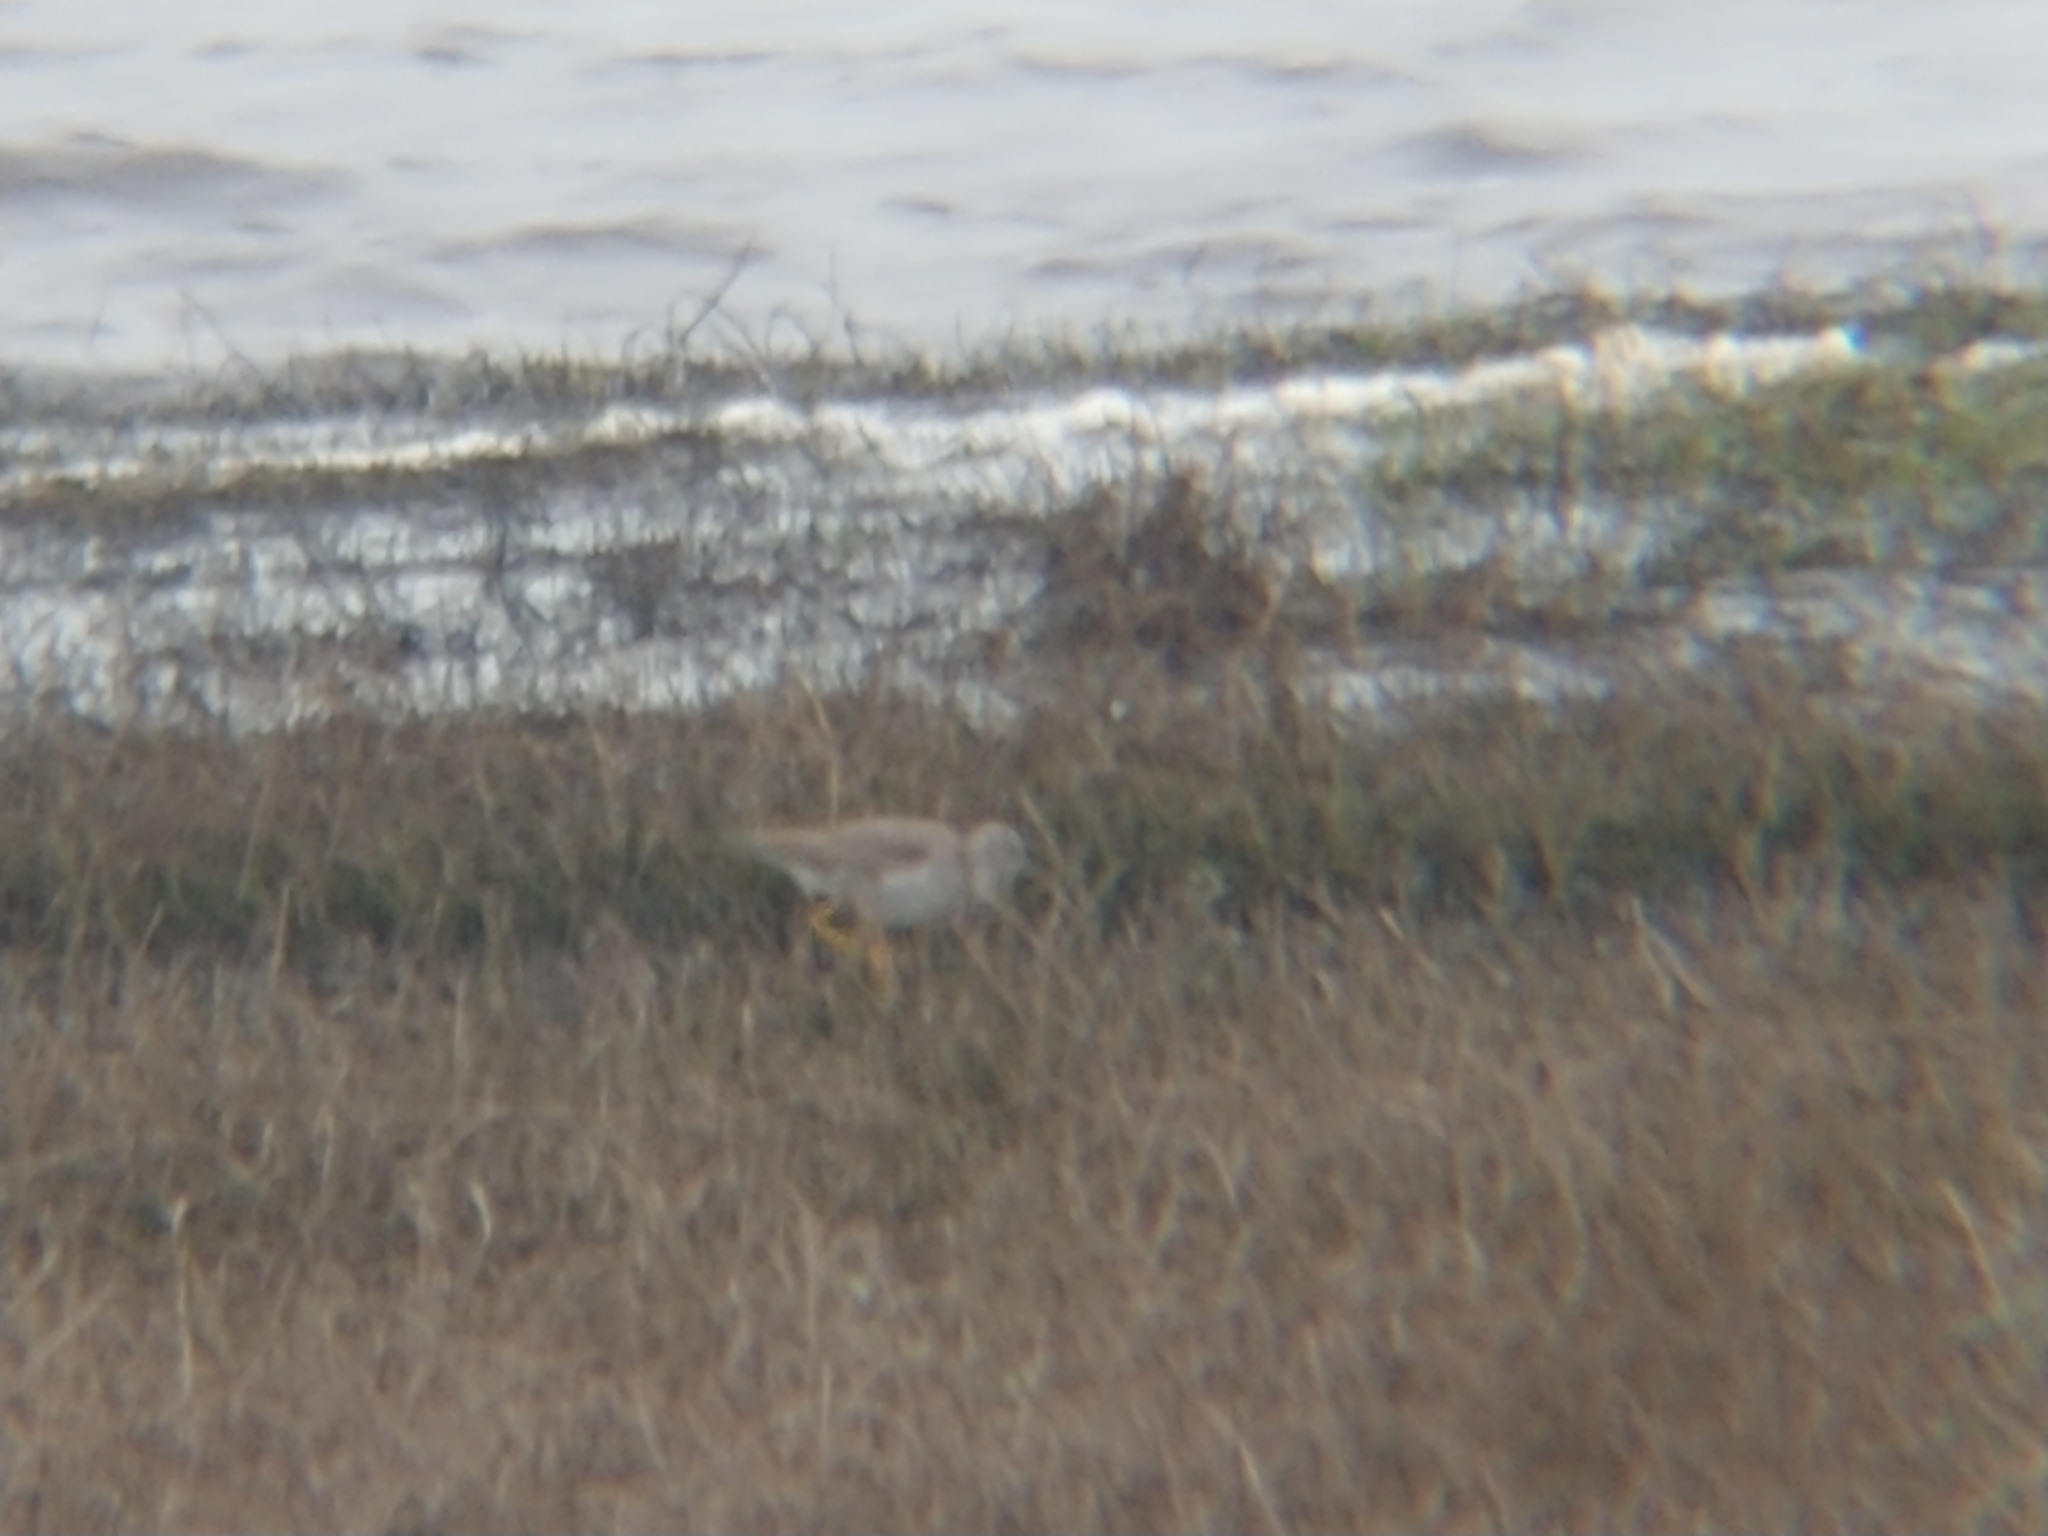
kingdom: Animalia
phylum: Chordata
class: Aves
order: Charadriiformes
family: Scolopacidae
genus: Tringa
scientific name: Tringa
